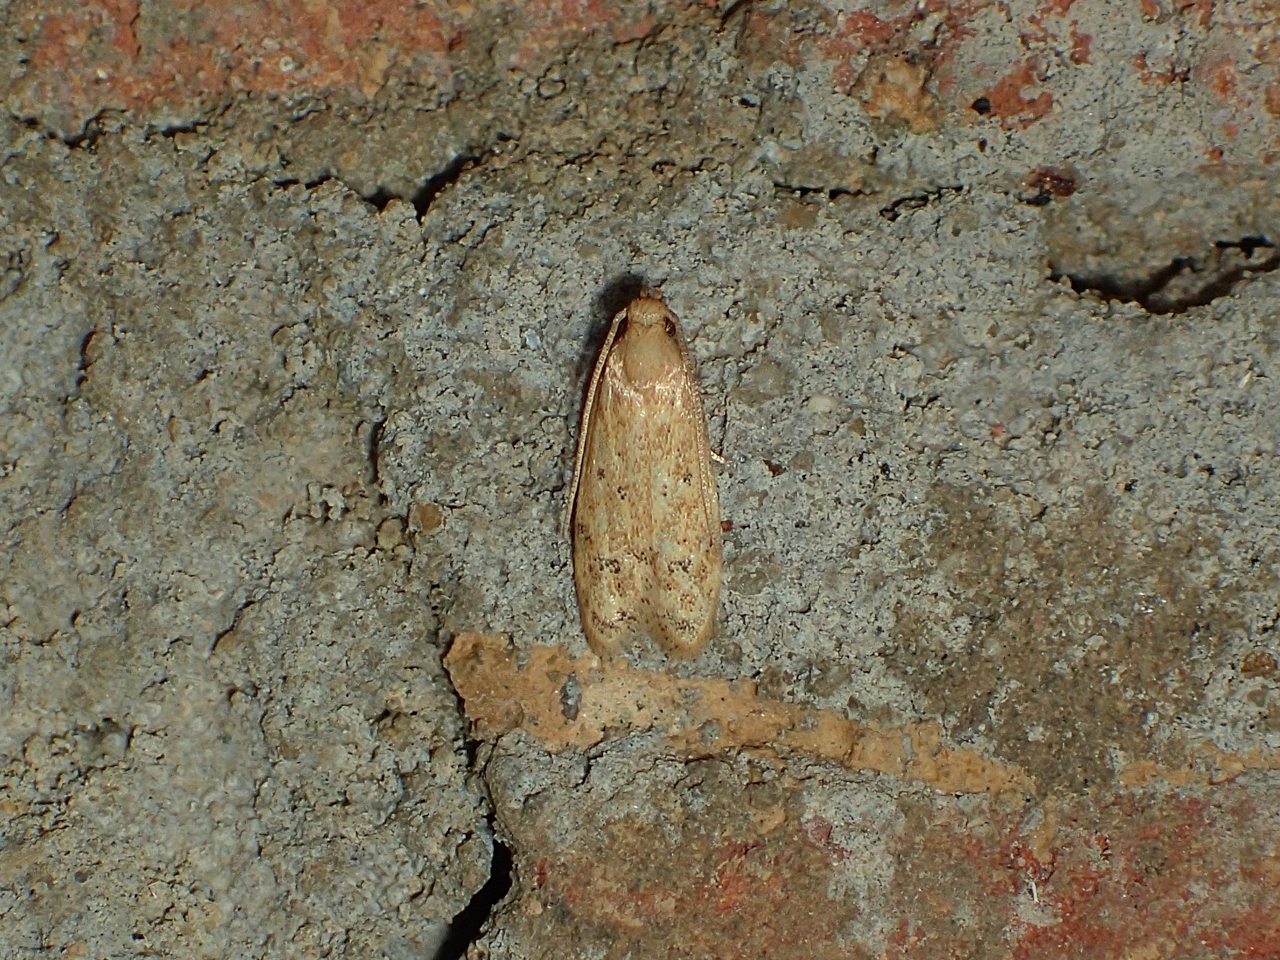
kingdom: Animalia
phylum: Arthropoda
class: Insecta
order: Lepidoptera
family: Autostichidae
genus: Gerdana
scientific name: Gerdana caritella
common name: Gerdana moth
